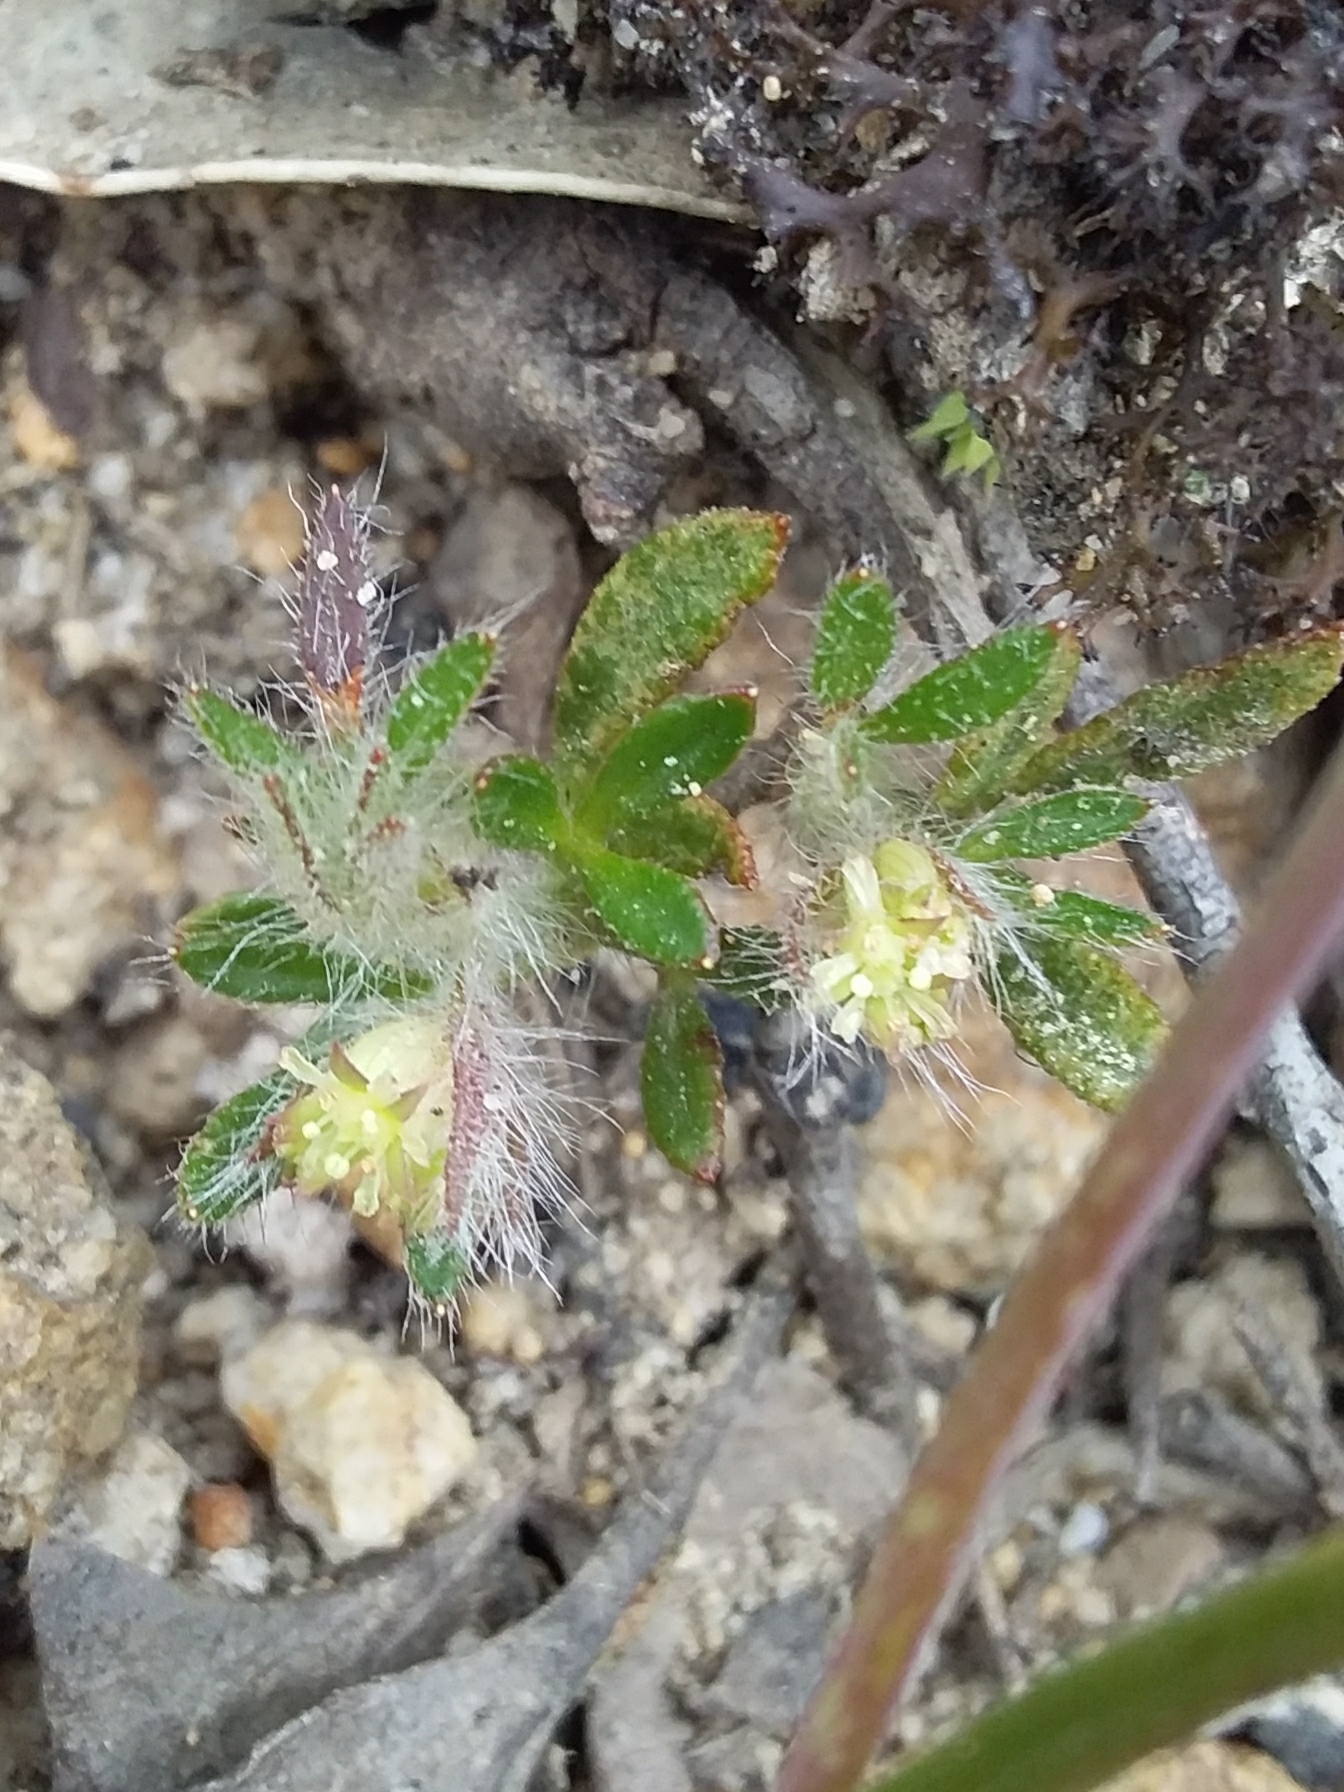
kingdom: Plantae
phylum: Tracheophyta
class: Magnoliopsida
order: Apiales
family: Apiaceae
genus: Xanthosia
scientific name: Xanthosia huegelii
